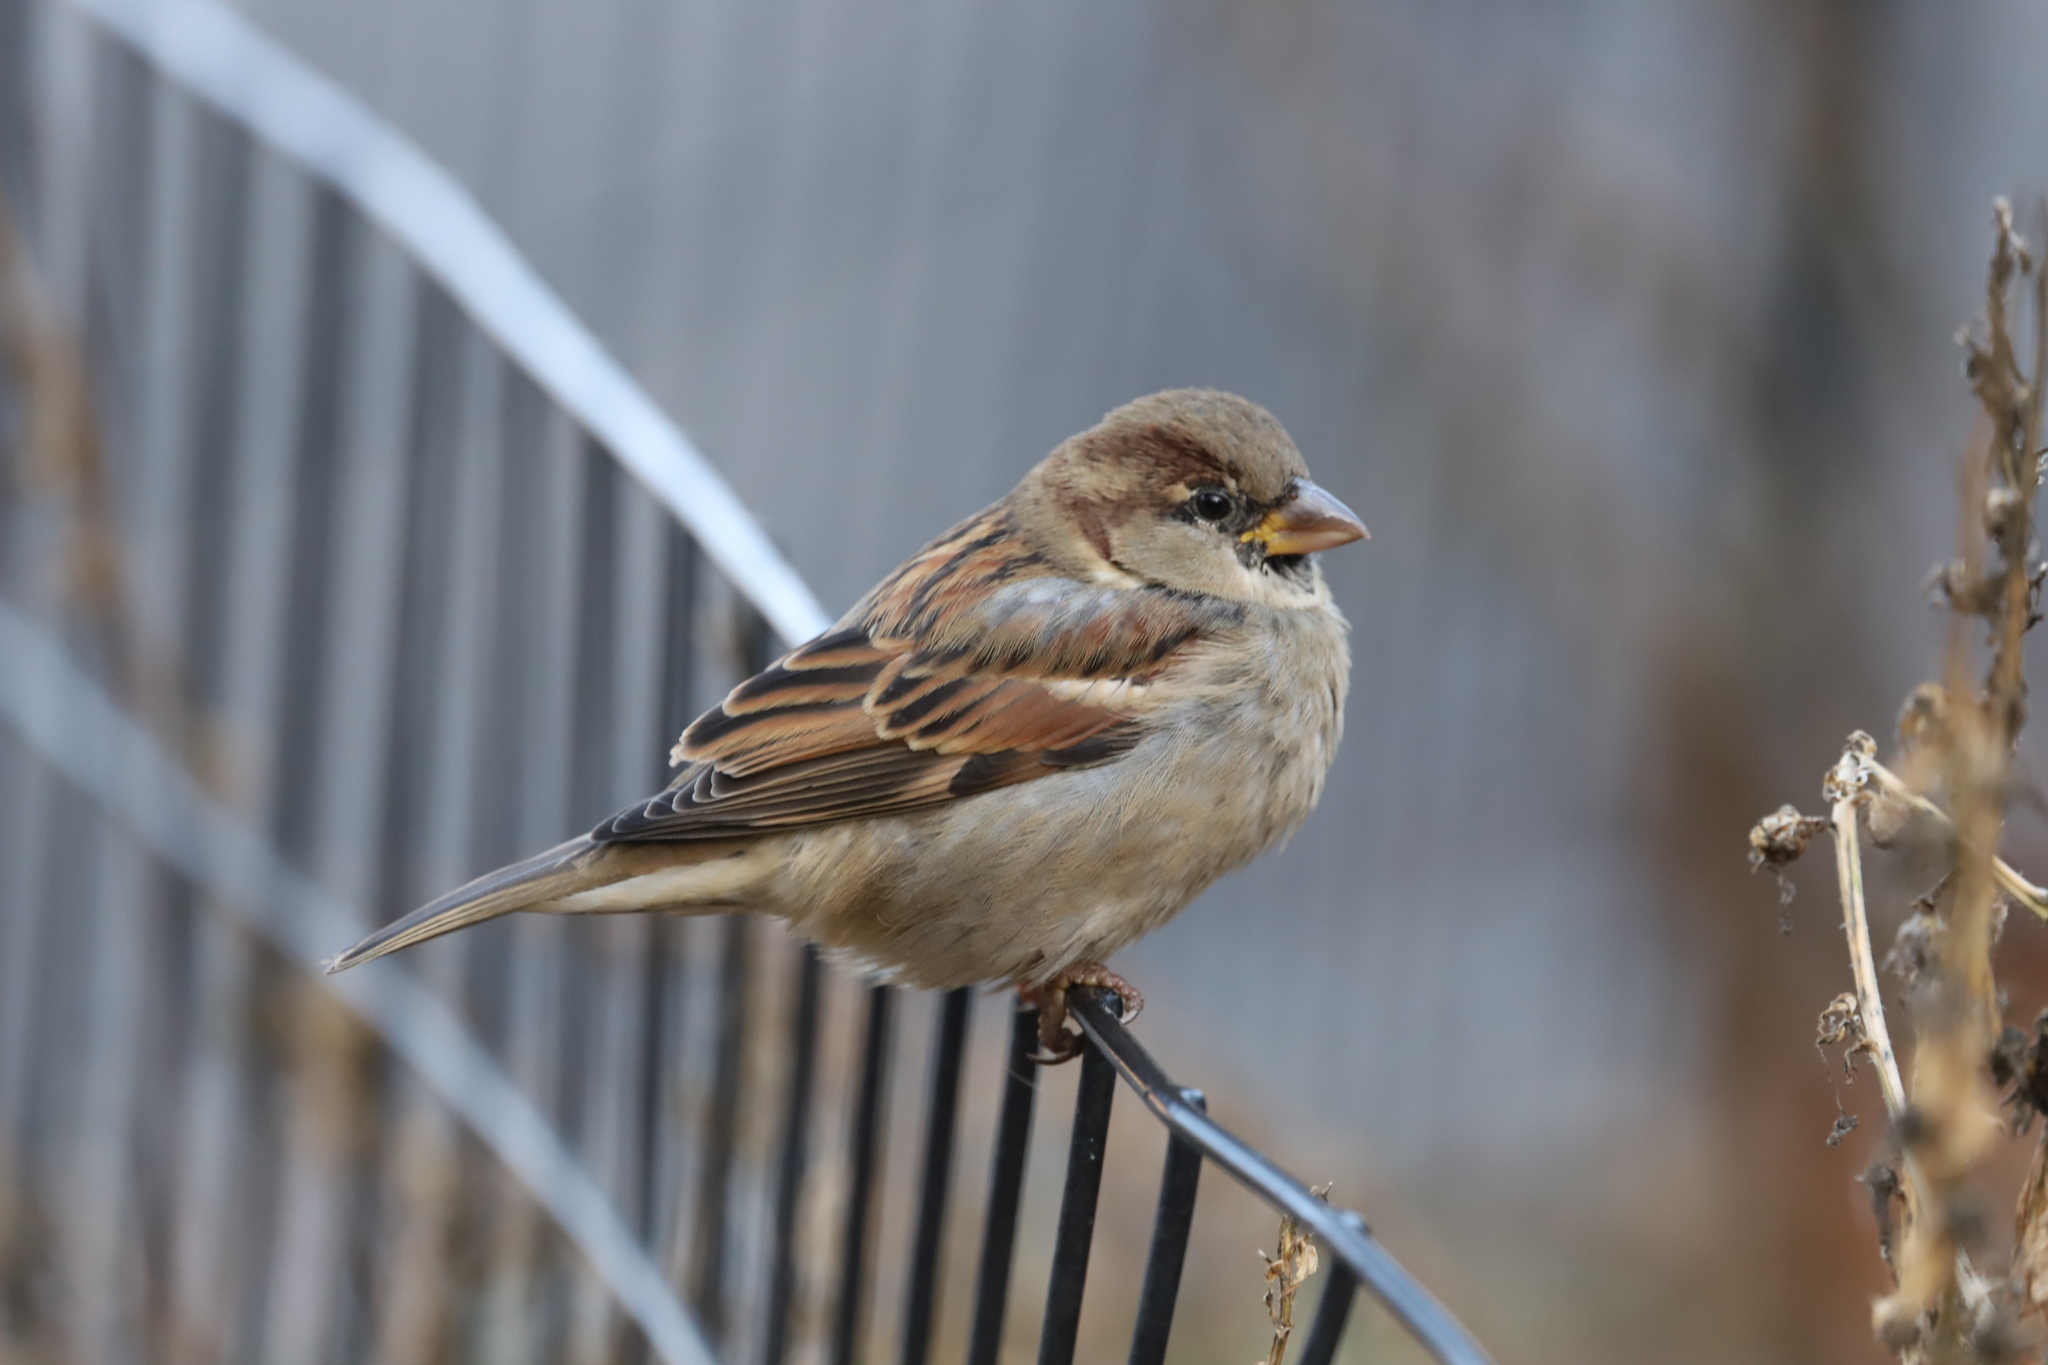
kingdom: Animalia
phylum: Chordata
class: Aves
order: Passeriformes
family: Passeridae
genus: Passer
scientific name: Passer domesticus
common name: House sparrow
